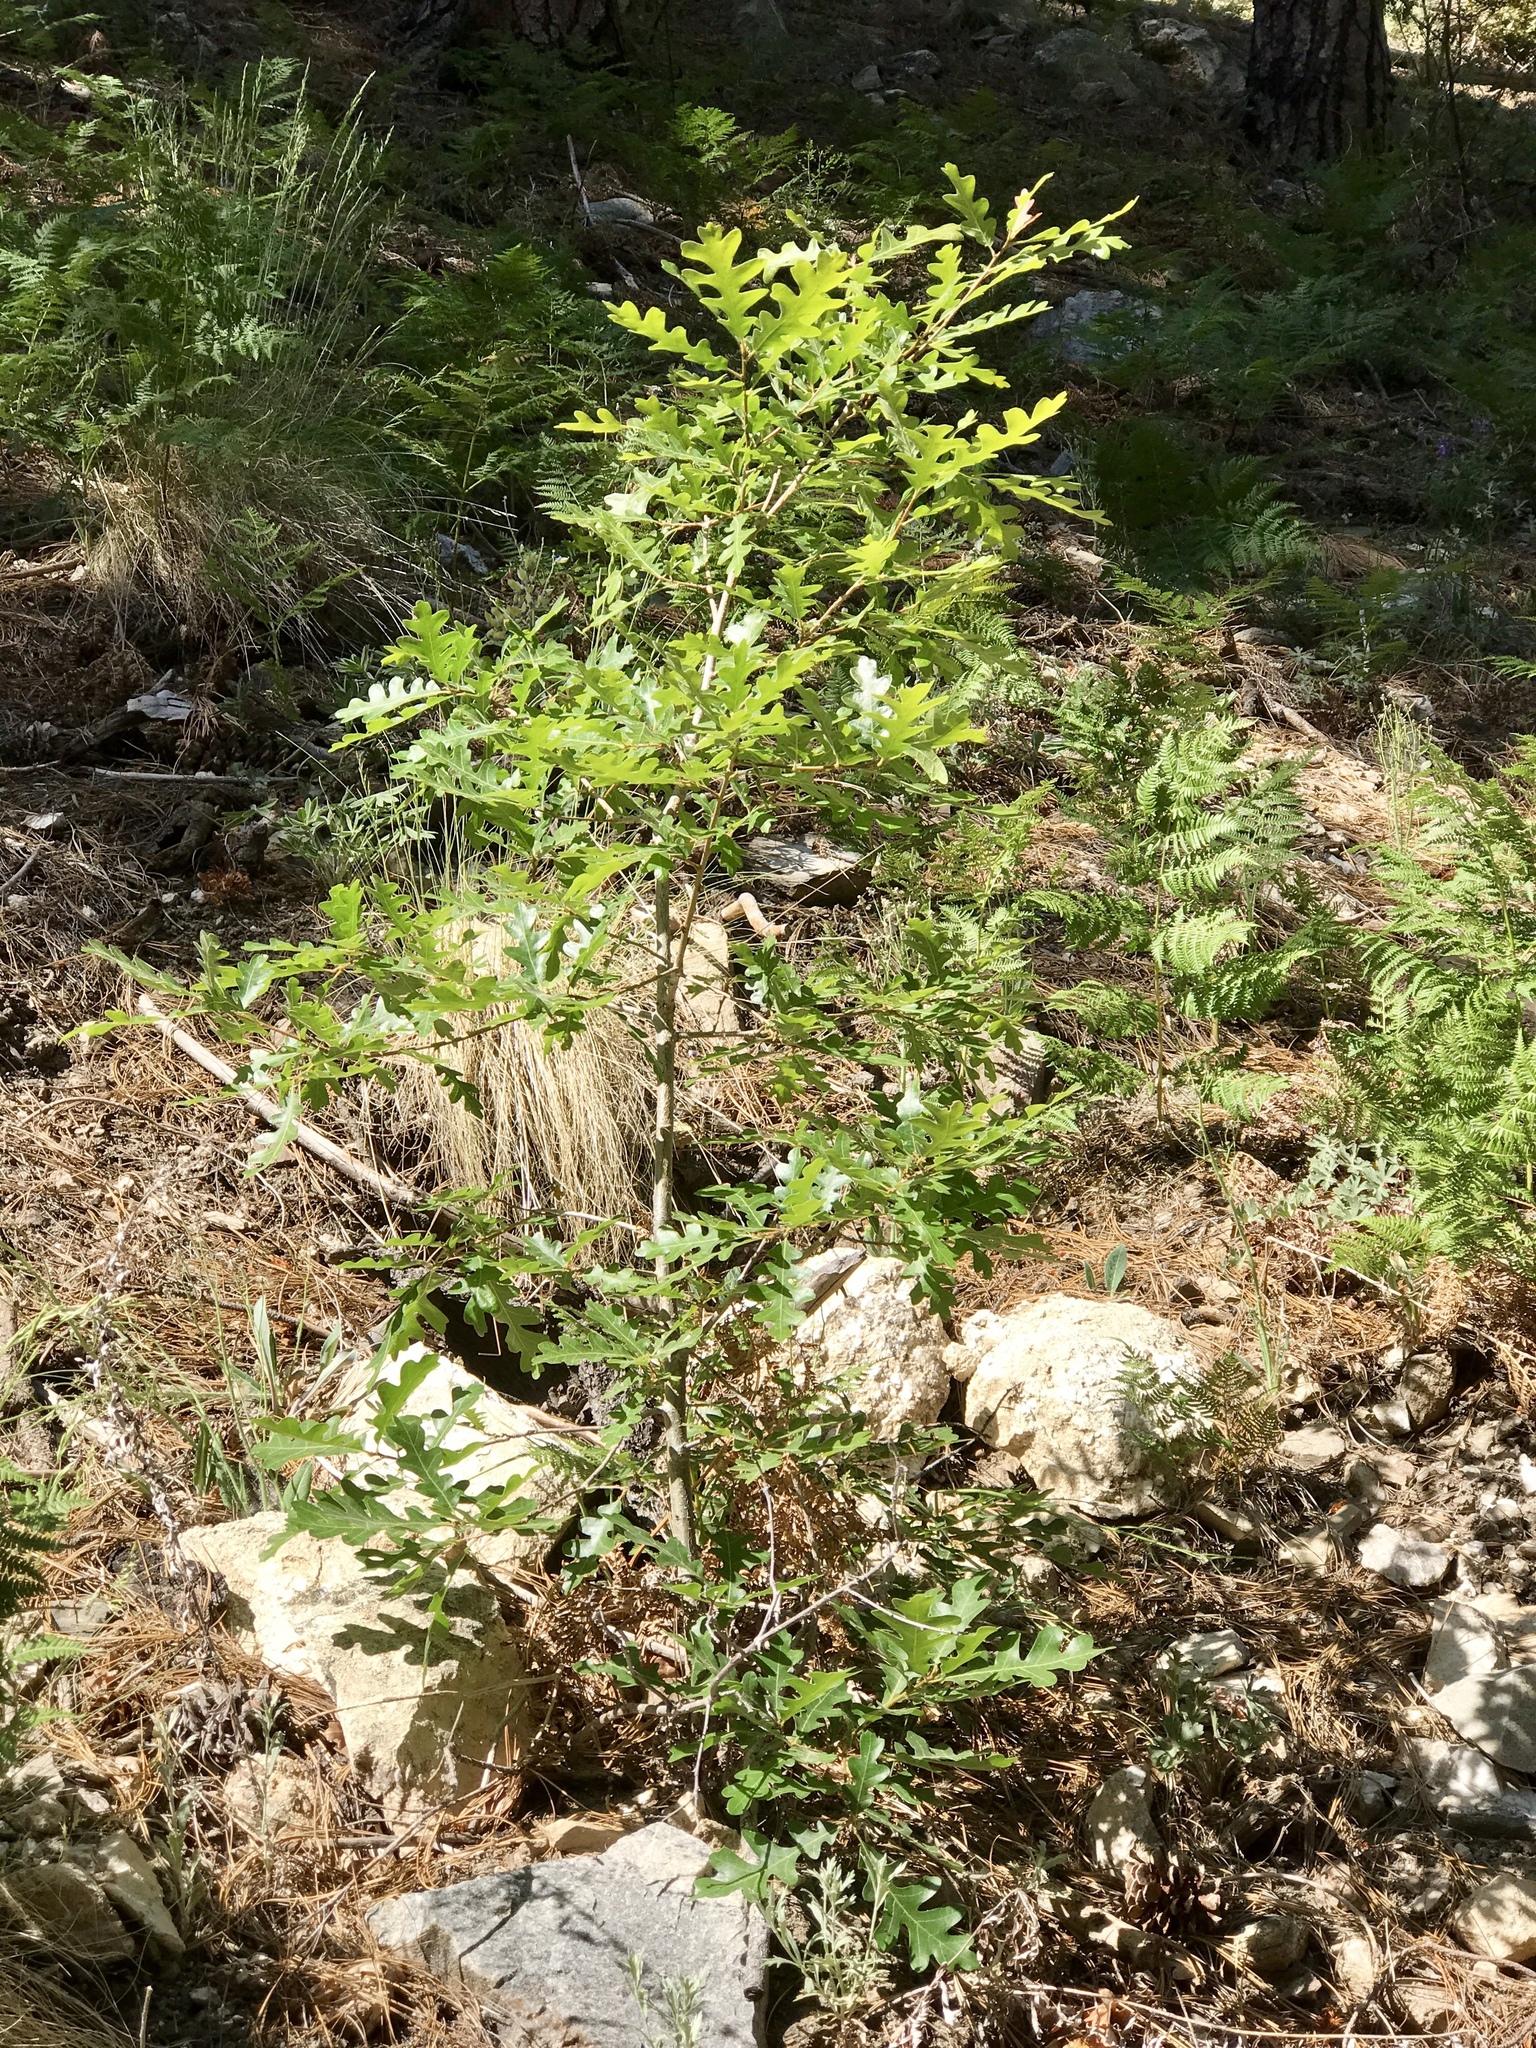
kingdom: Plantae
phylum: Tracheophyta
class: Magnoliopsida
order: Fagales
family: Fagaceae
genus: Quercus
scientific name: Quercus gambelii
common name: Gambel oak
